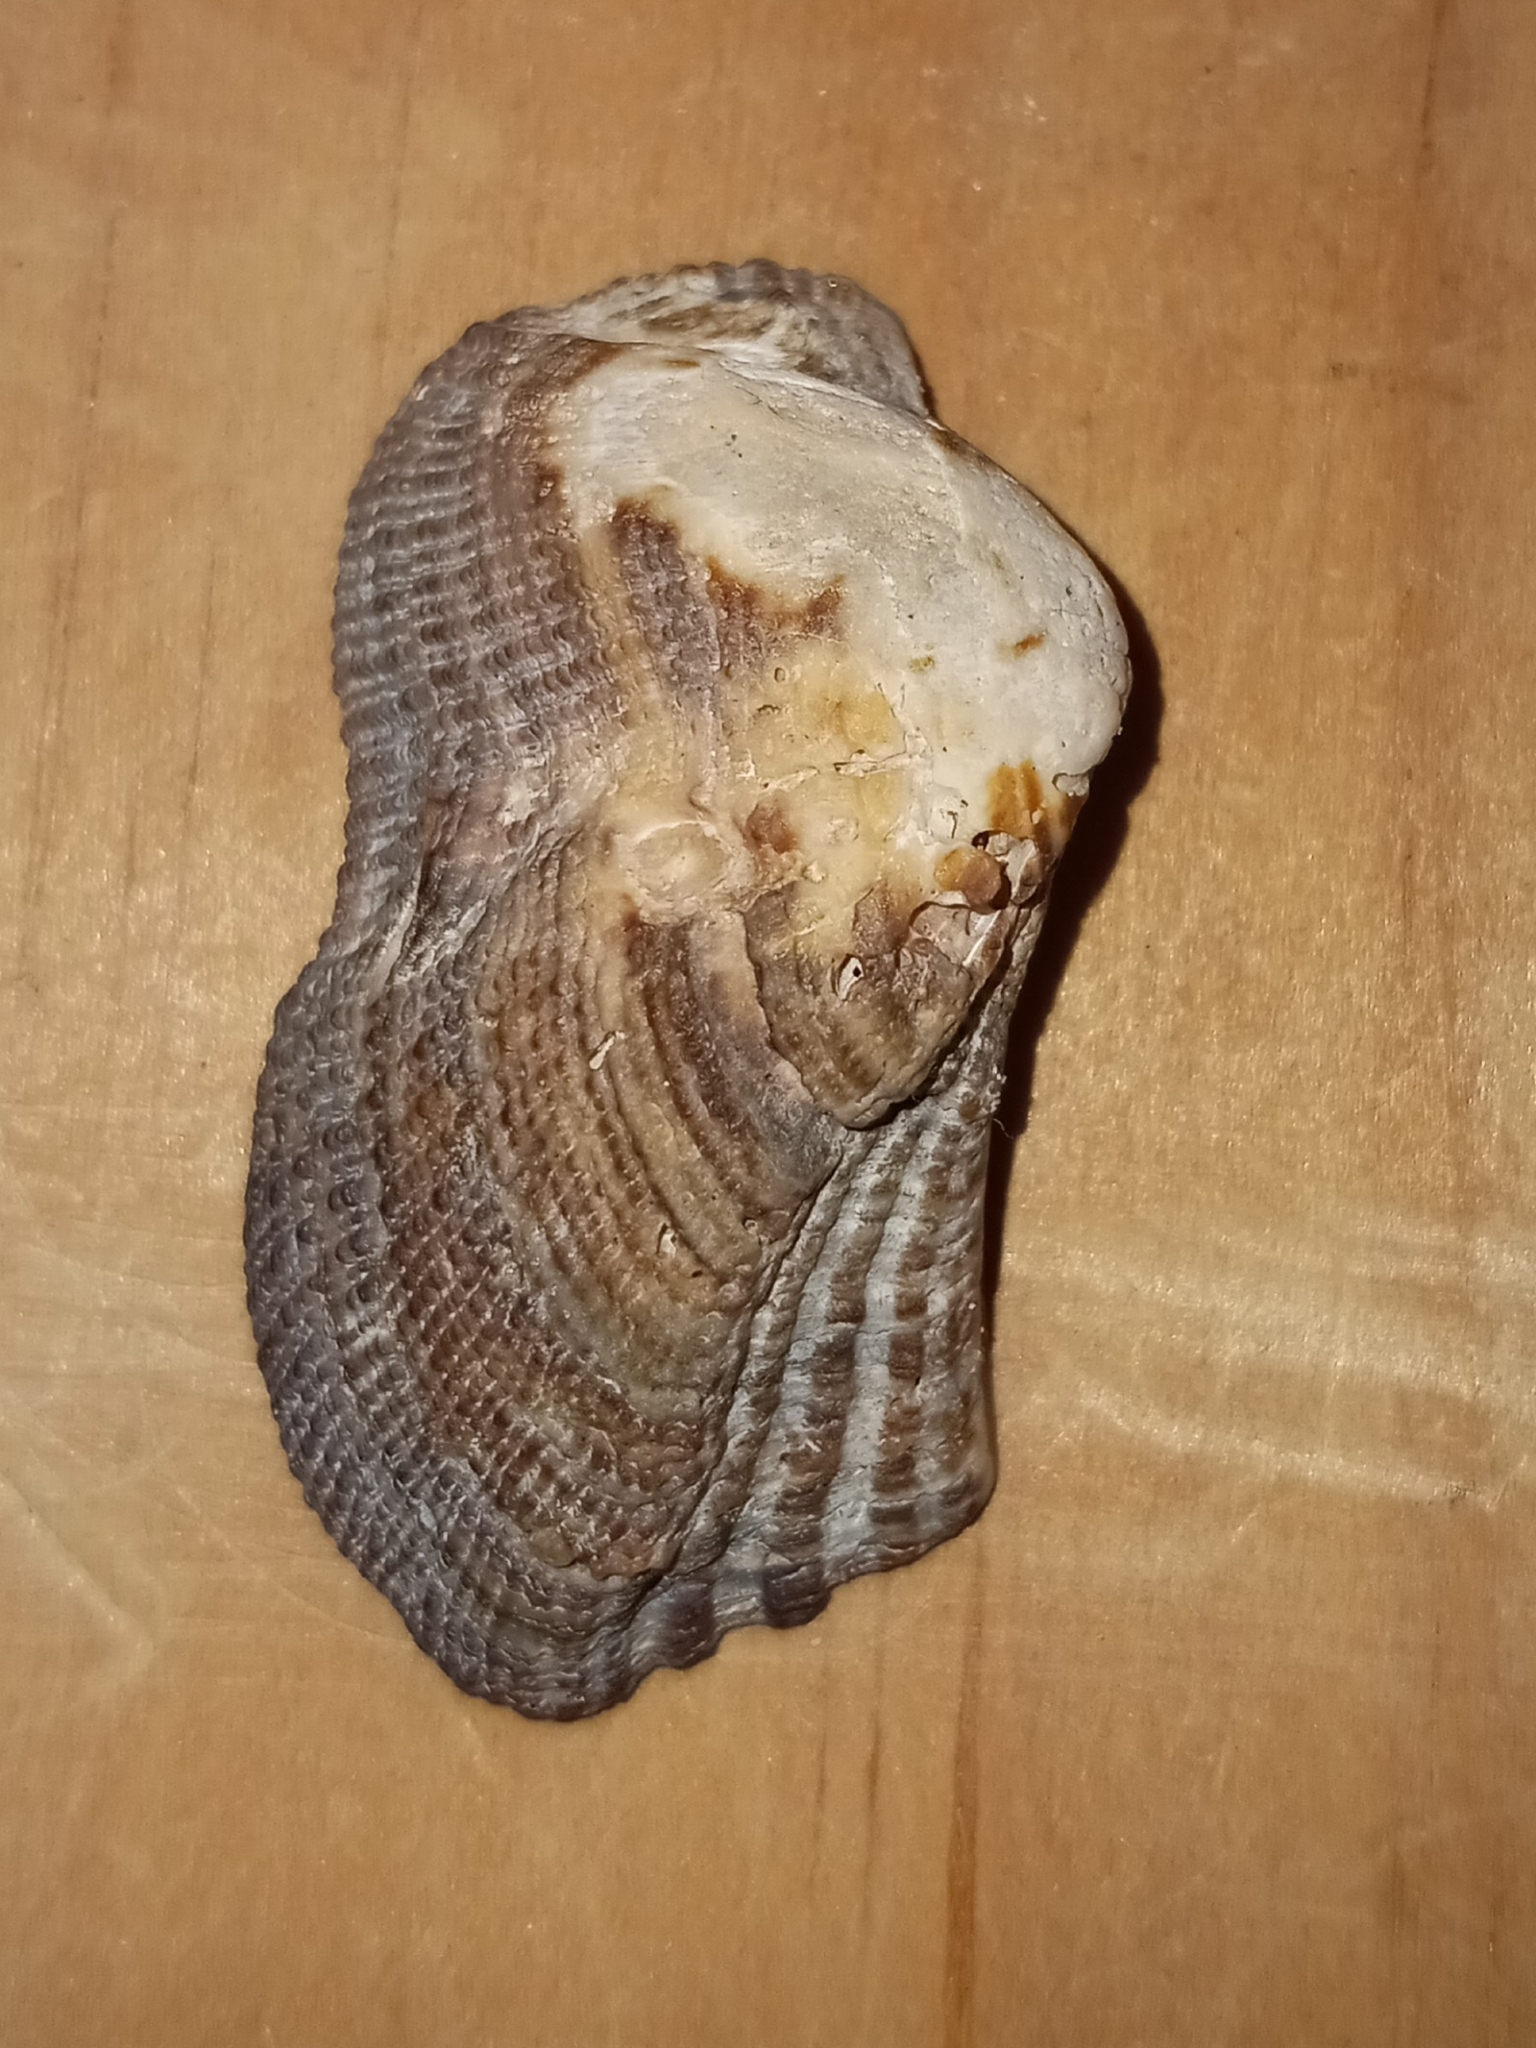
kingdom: Animalia
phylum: Mollusca
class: Bivalvia
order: Arcida
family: Arcidae
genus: Lamarcka
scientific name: Lamarcka imbricata
